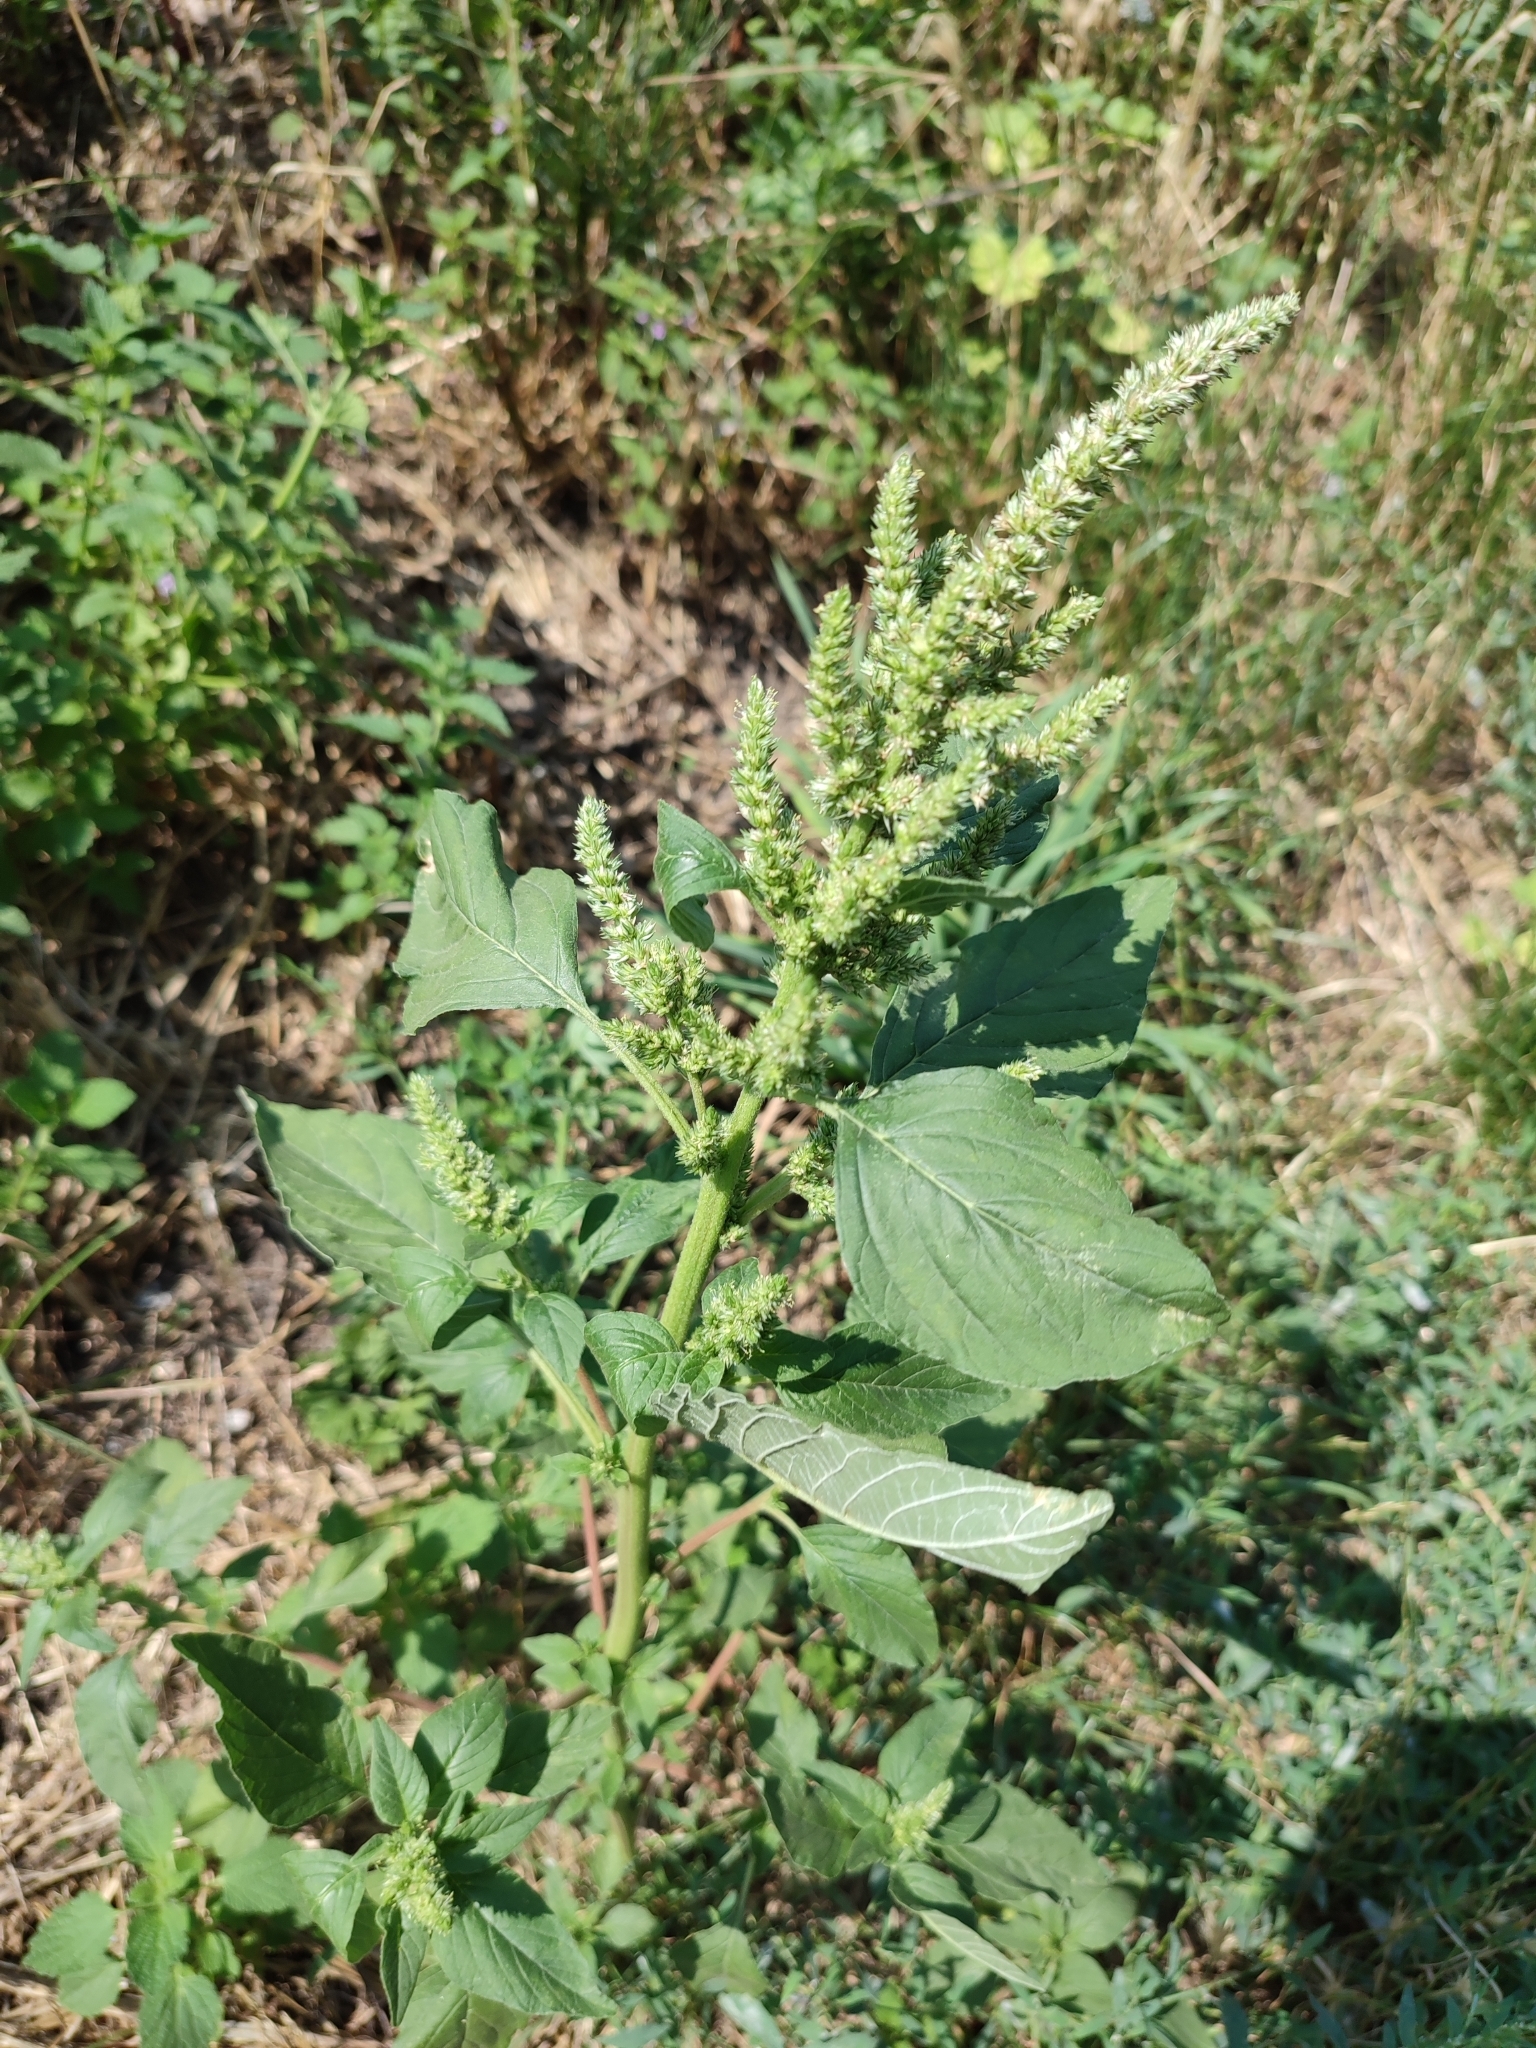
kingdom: Plantae
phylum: Tracheophyta
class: Magnoliopsida
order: Caryophyllales
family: Amaranthaceae
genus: Amaranthus
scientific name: Amaranthus retroflexus
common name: Redroot amaranth
